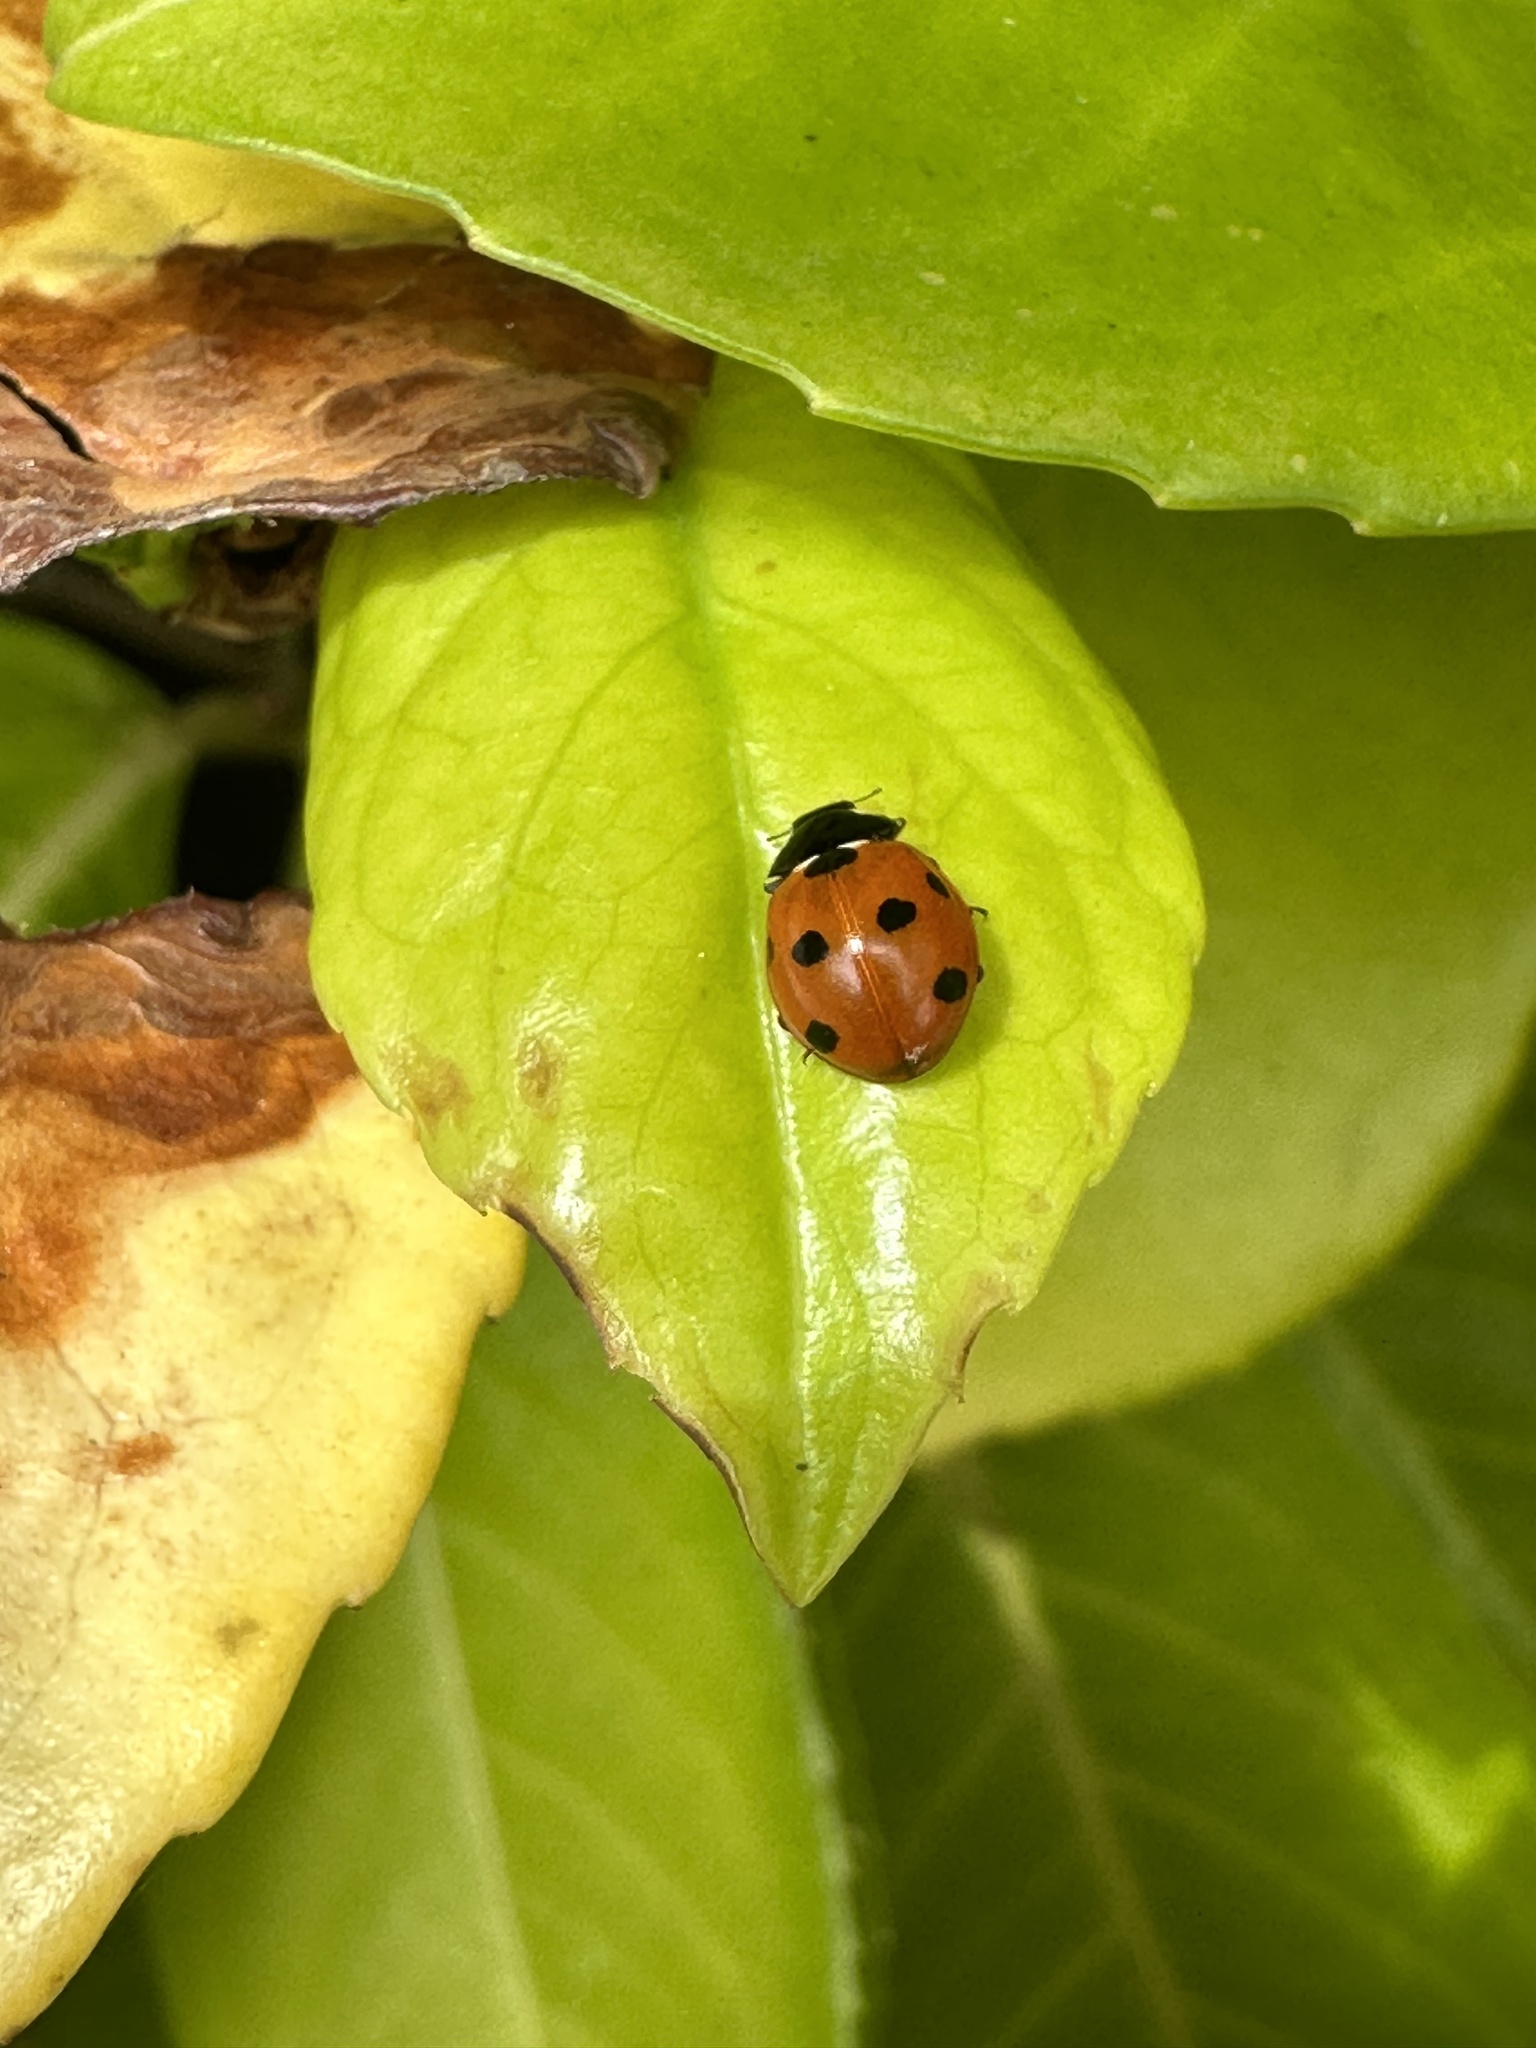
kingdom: Animalia
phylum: Arthropoda
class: Insecta
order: Coleoptera
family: Coccinellidae
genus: Coccinella
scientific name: Coccinella septempunctata
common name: Sevenspotted lady beetle
